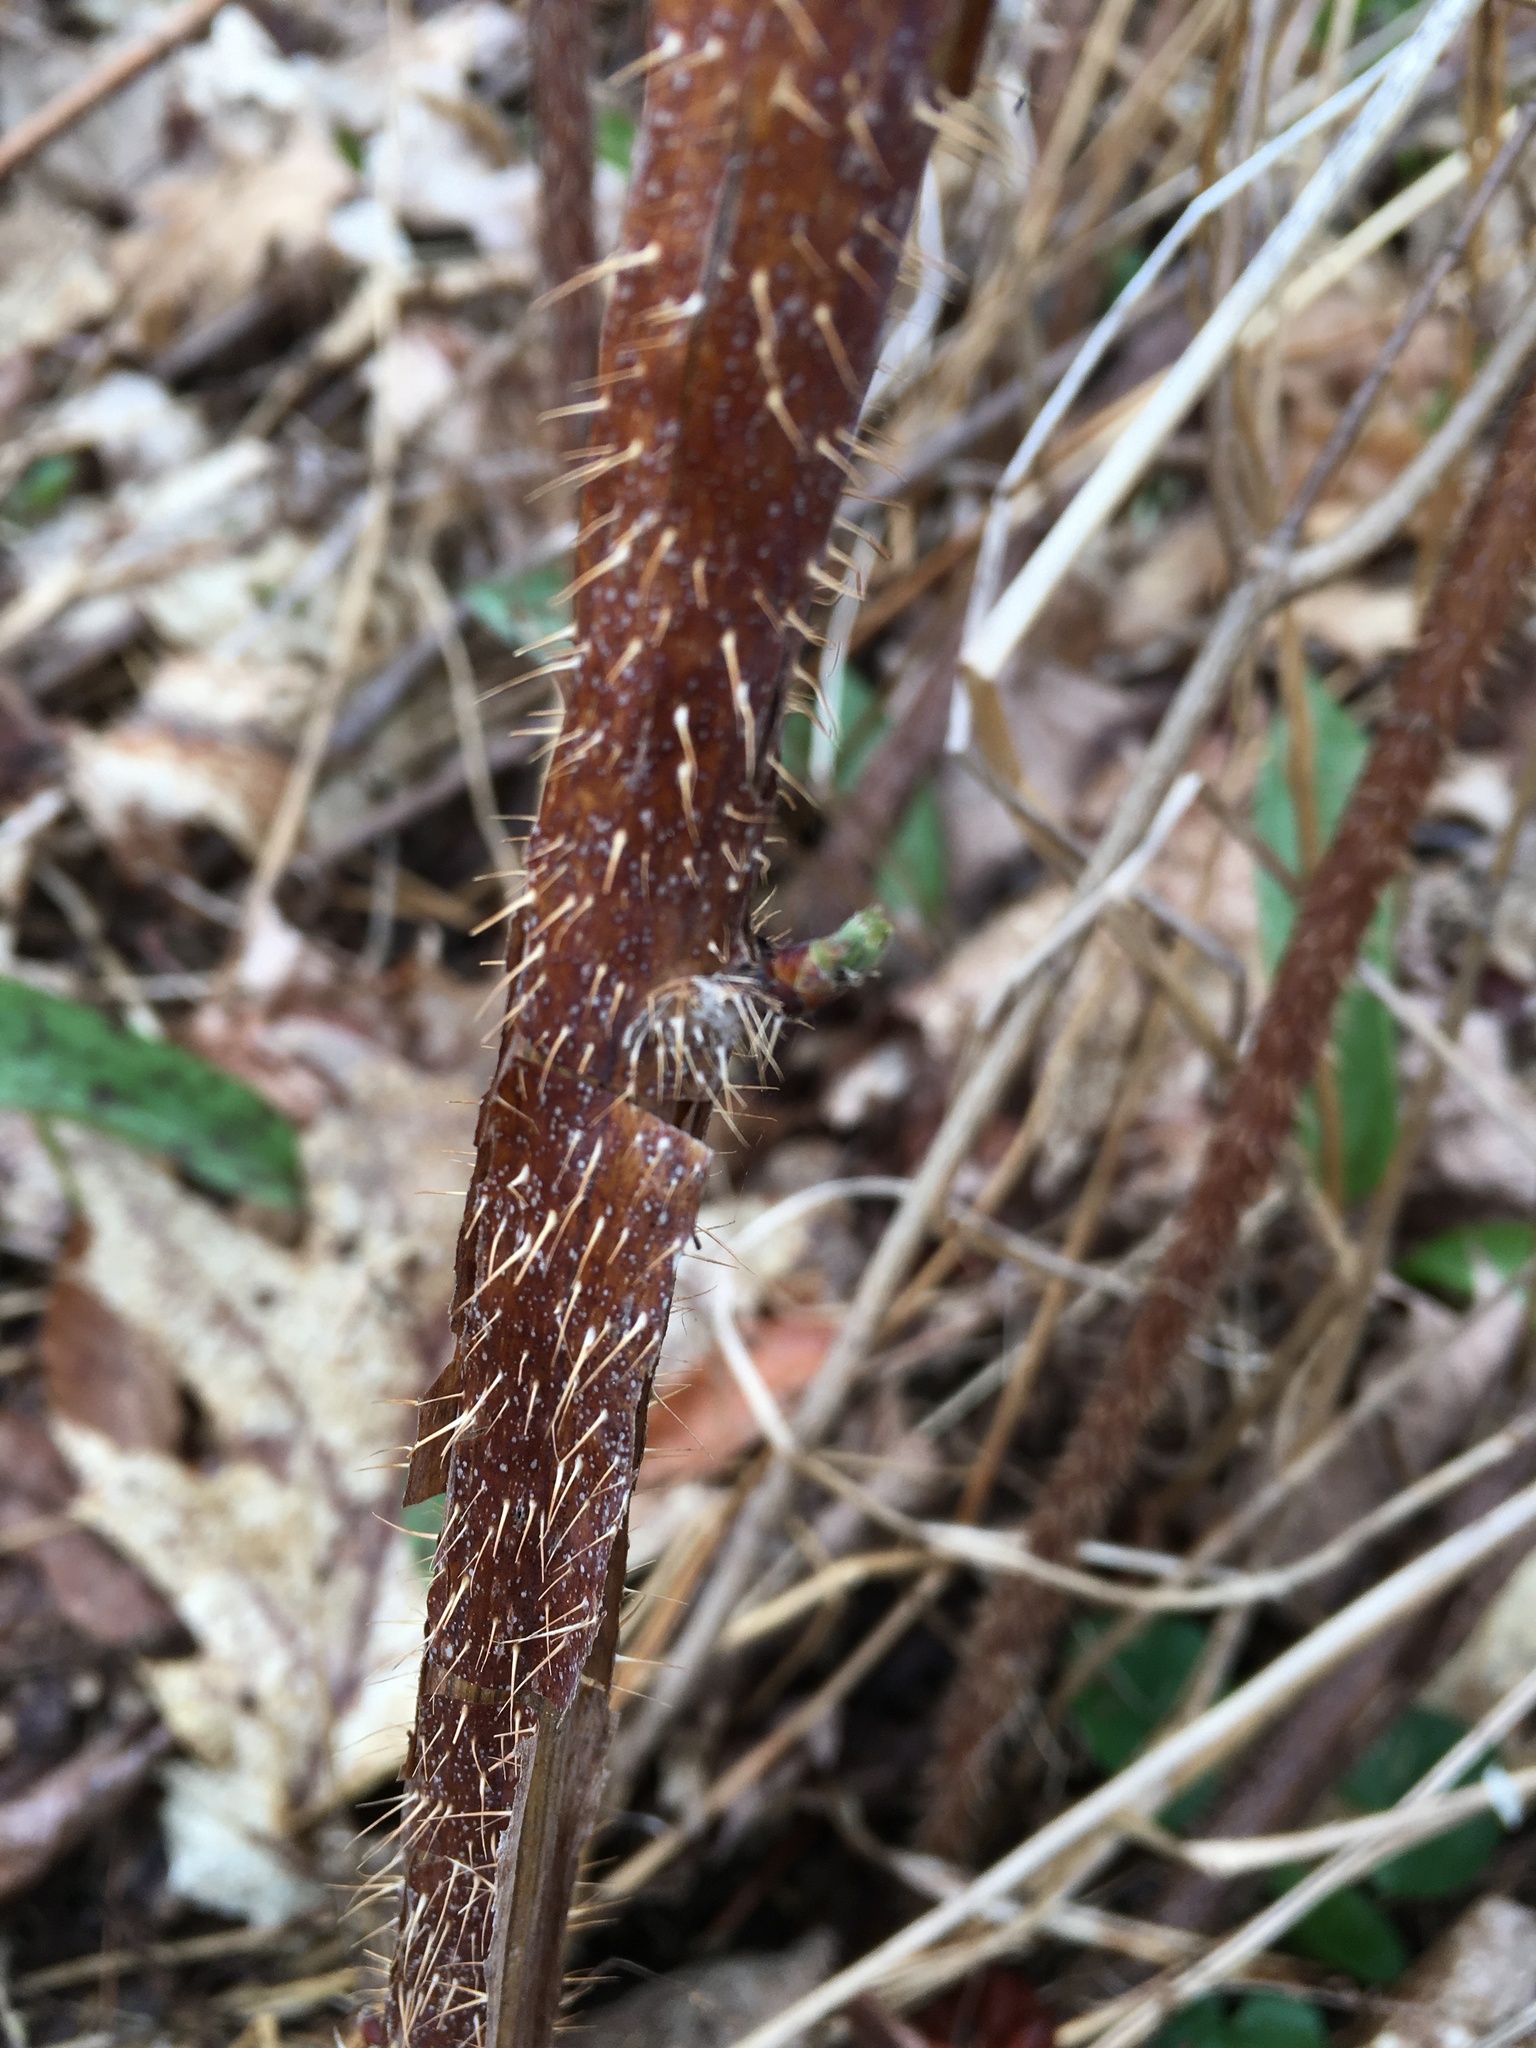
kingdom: Plantae
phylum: Tracheophyta
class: Magnoliopsida
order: Rosales
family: Rosaceae
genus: Rubus
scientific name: Rubus phoenicolasius
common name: Japanese wineberry
